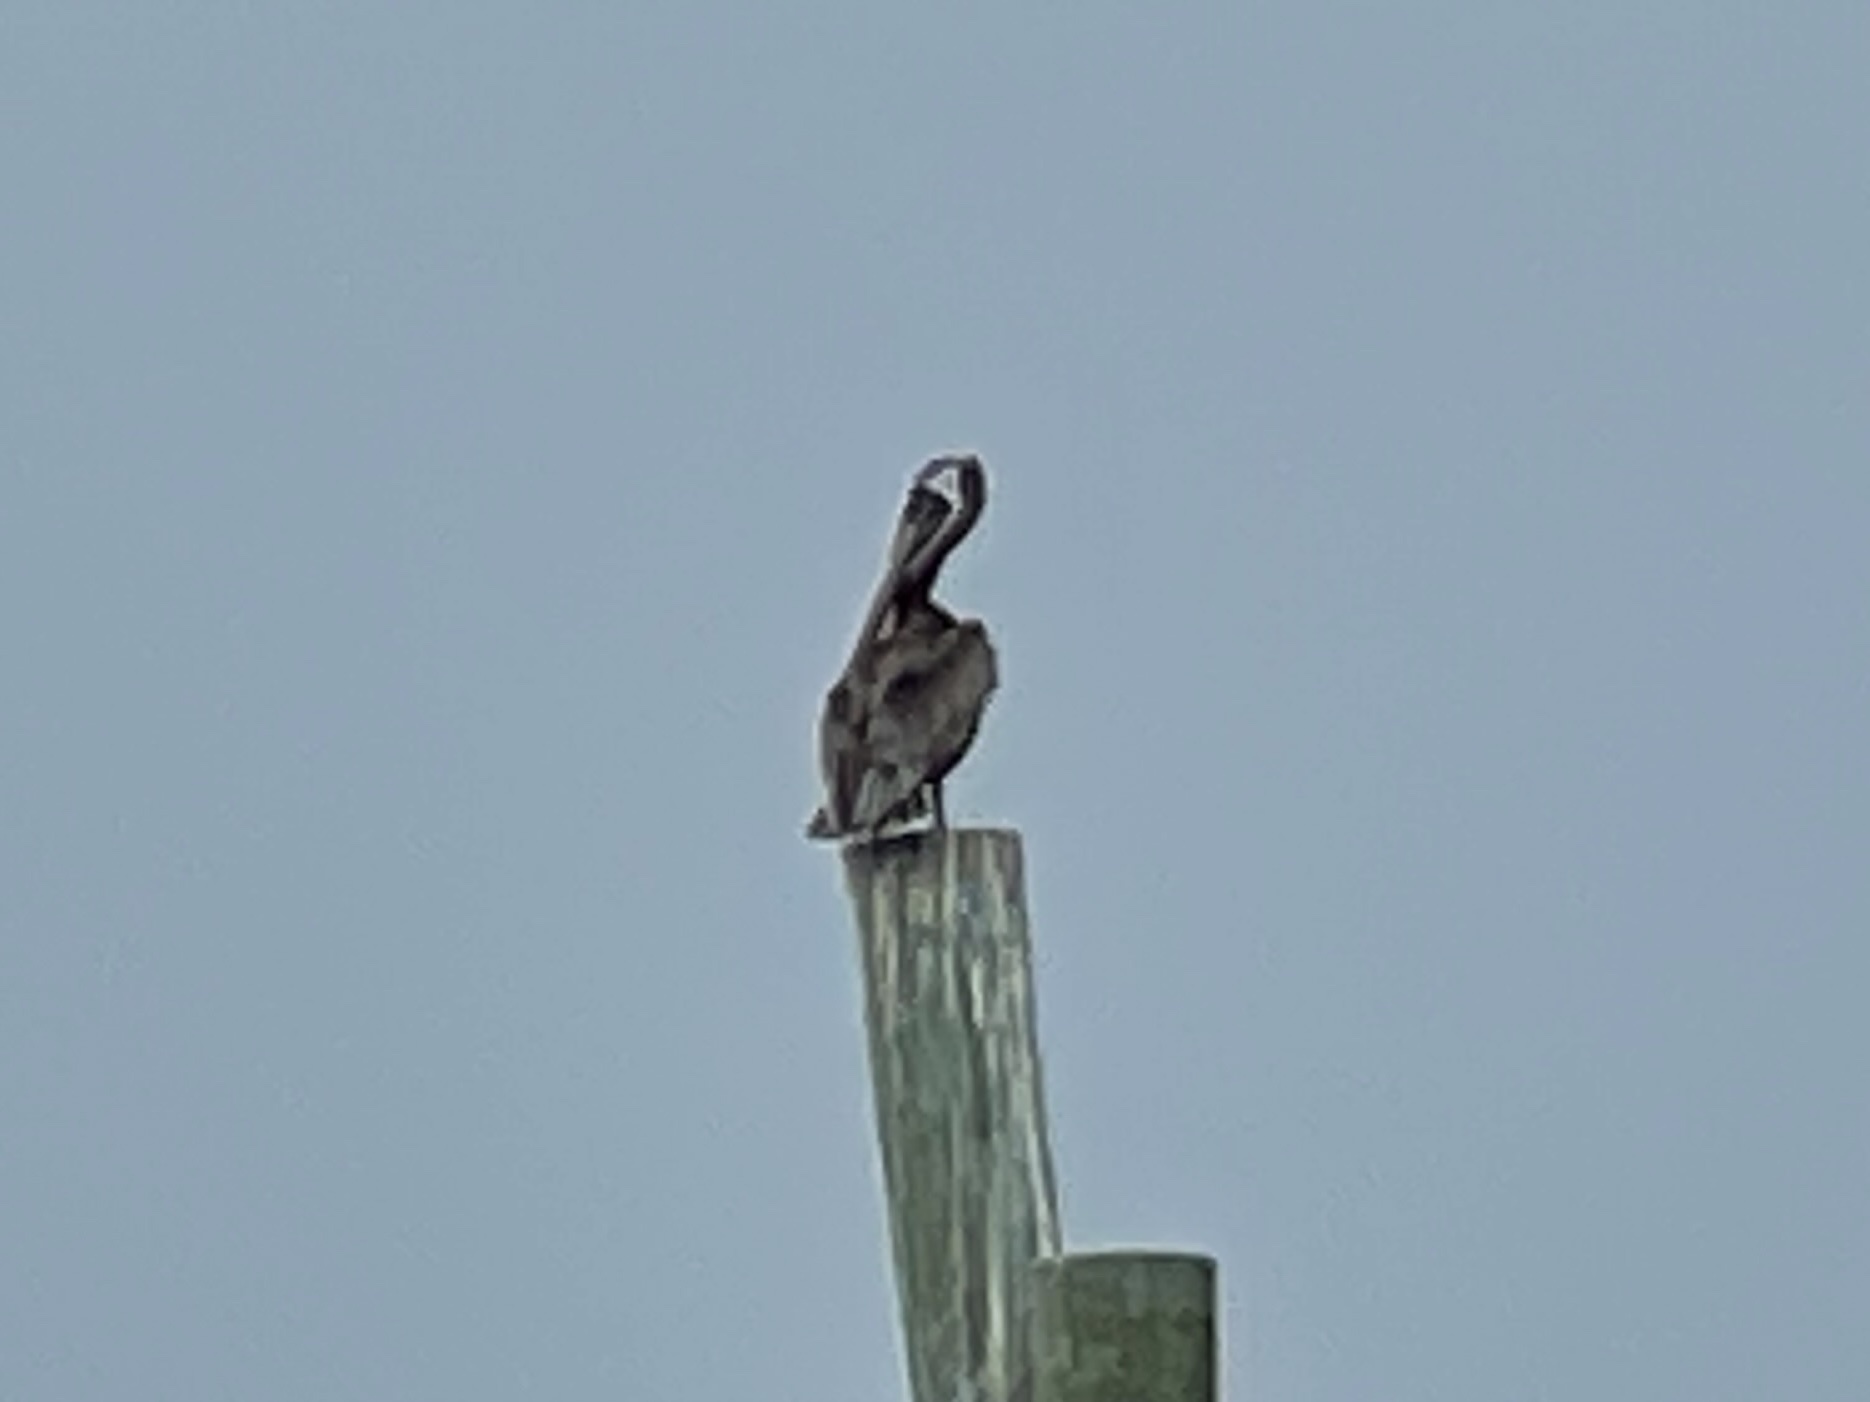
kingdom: Animalia
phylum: Chordata
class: Aves
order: Pelecaniformes
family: Pelecanidae
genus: Pelecanus
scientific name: Pelecanus occidentalis
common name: Brown pelican
